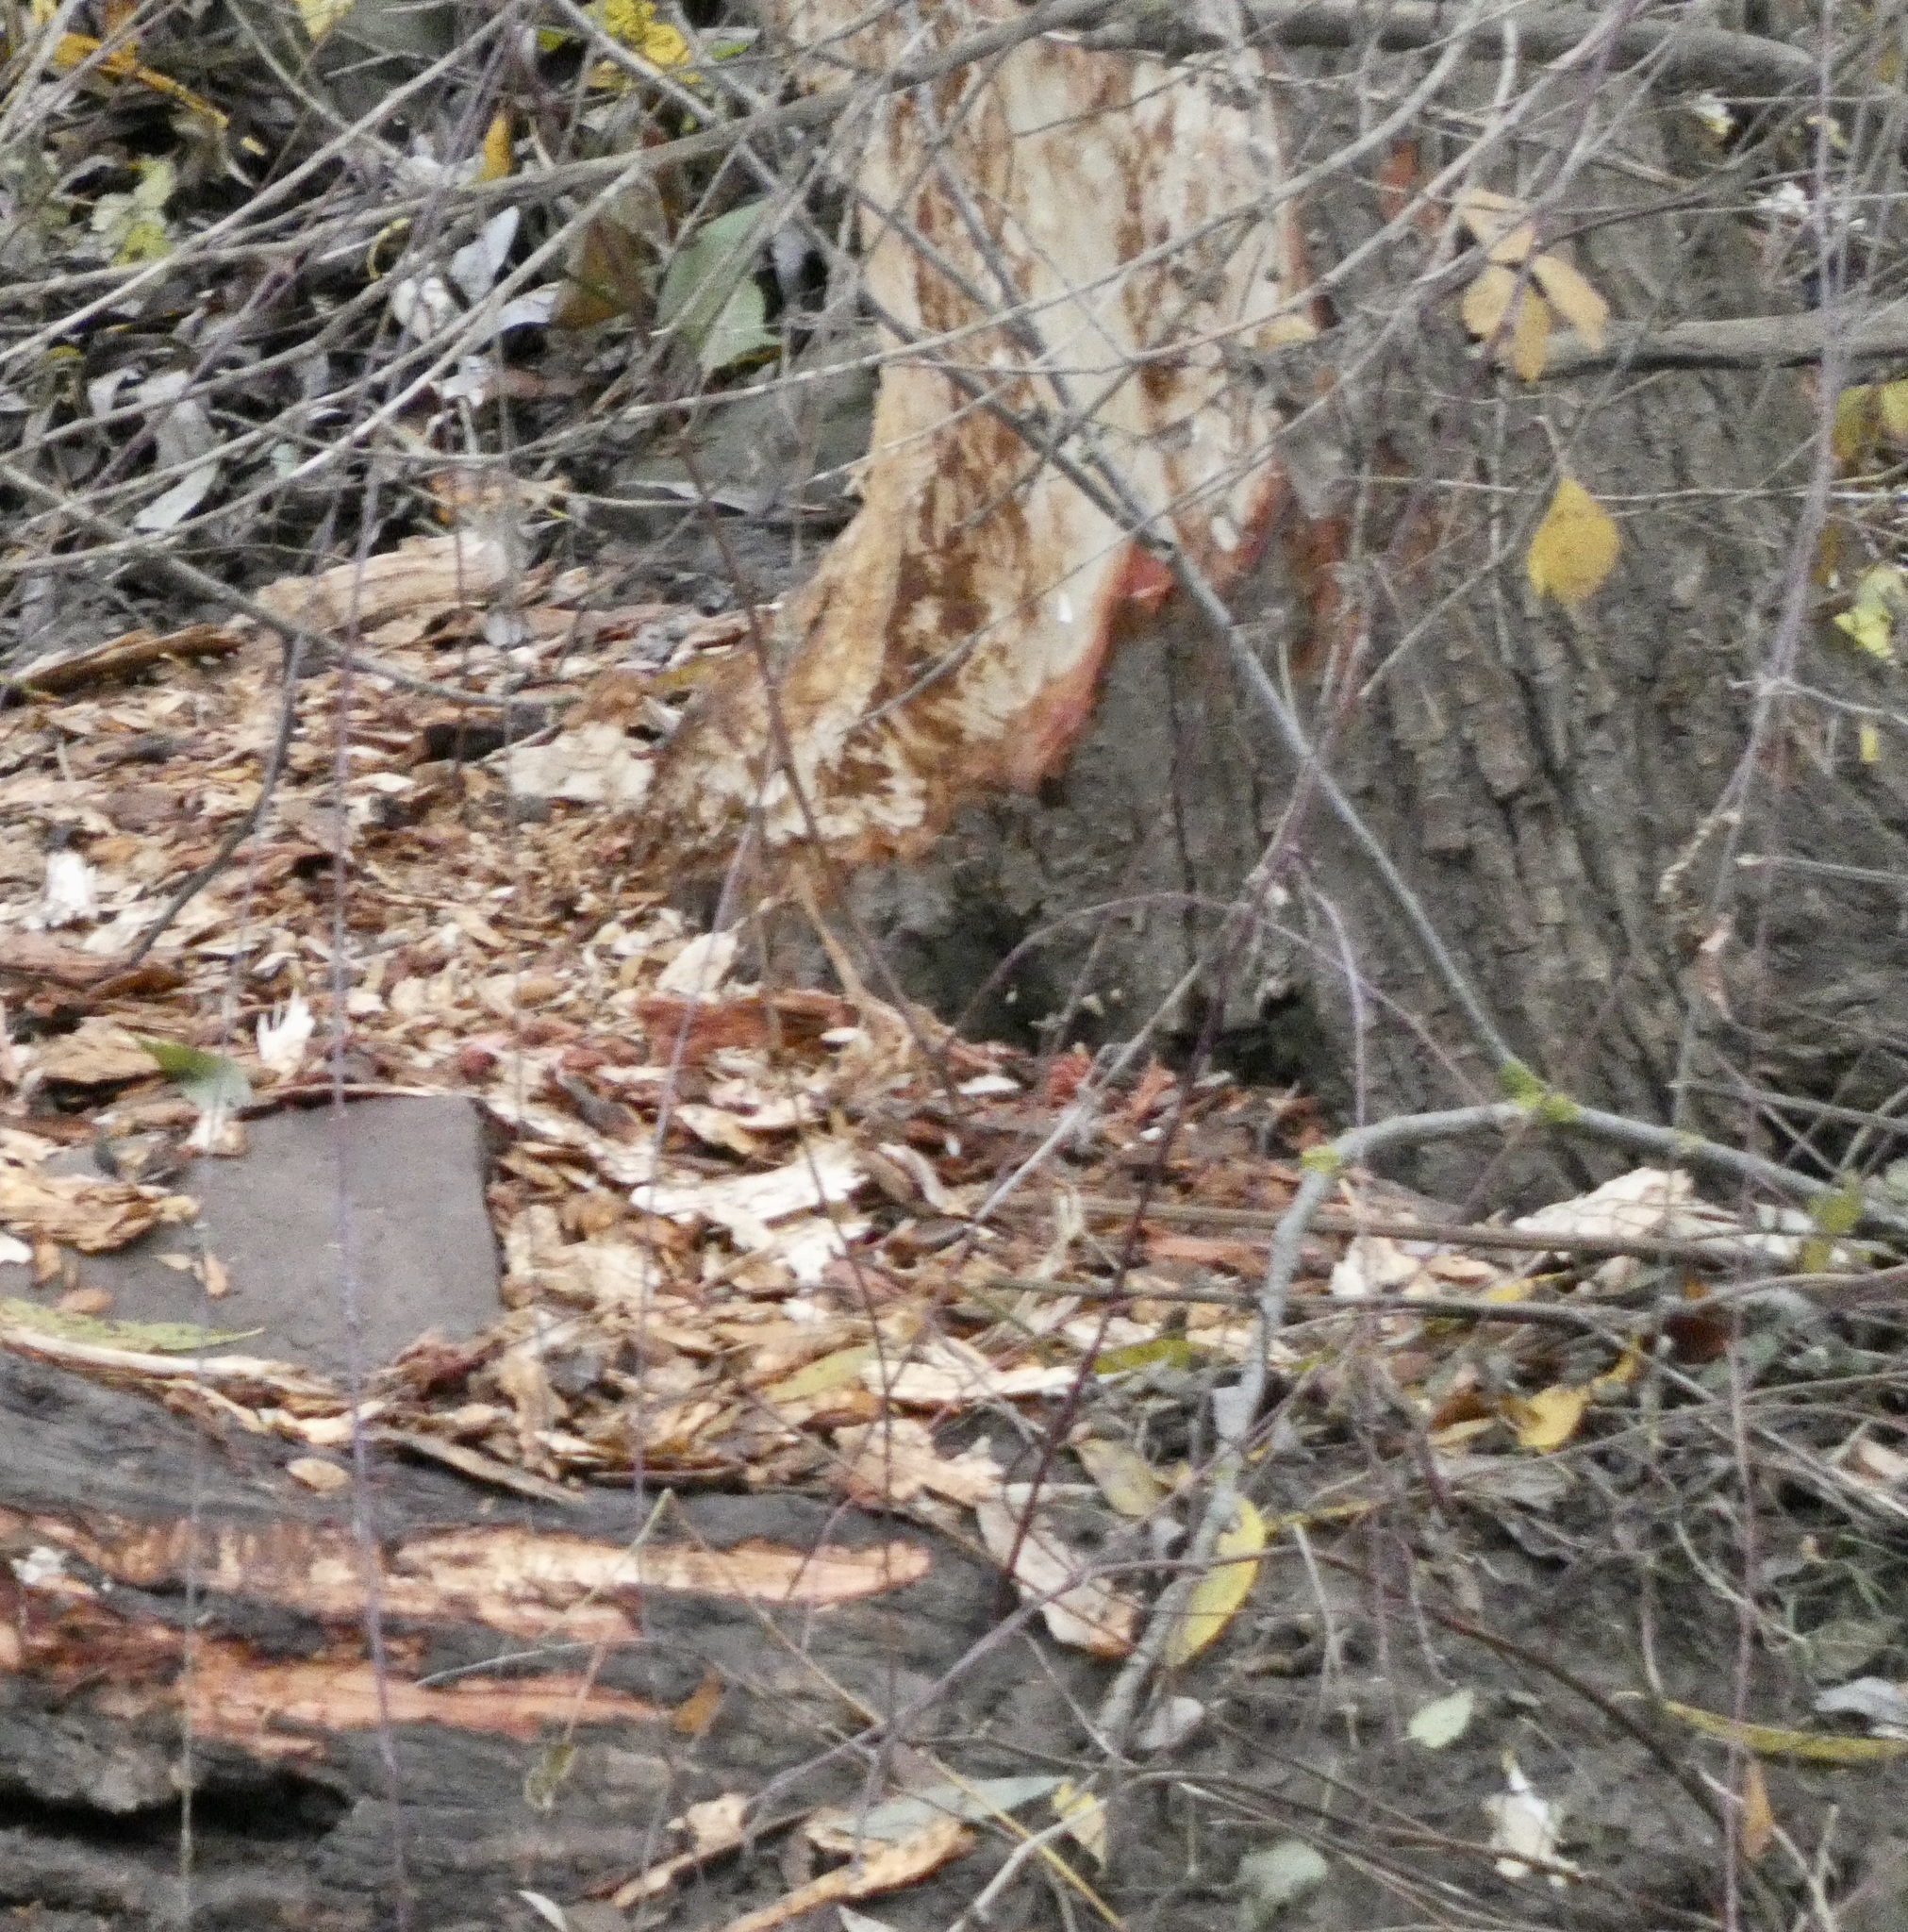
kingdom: Animalia
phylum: Chordata
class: Mammalia
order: Rodentia
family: Castoridae
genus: Castor
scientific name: Castor fiber
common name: Eurasian beaver
